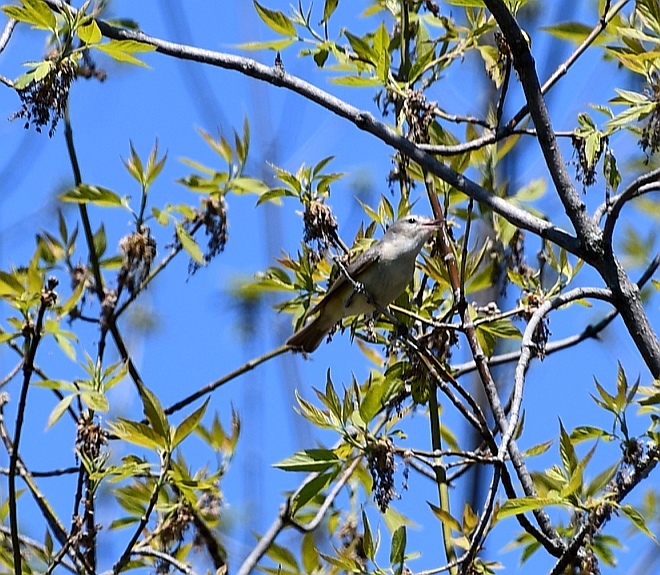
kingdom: Animalia
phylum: Chordata
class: Aves
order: Passeriformes
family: Vireonidae
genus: Vireo
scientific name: Vireo gilvus
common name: Warbling vireo
